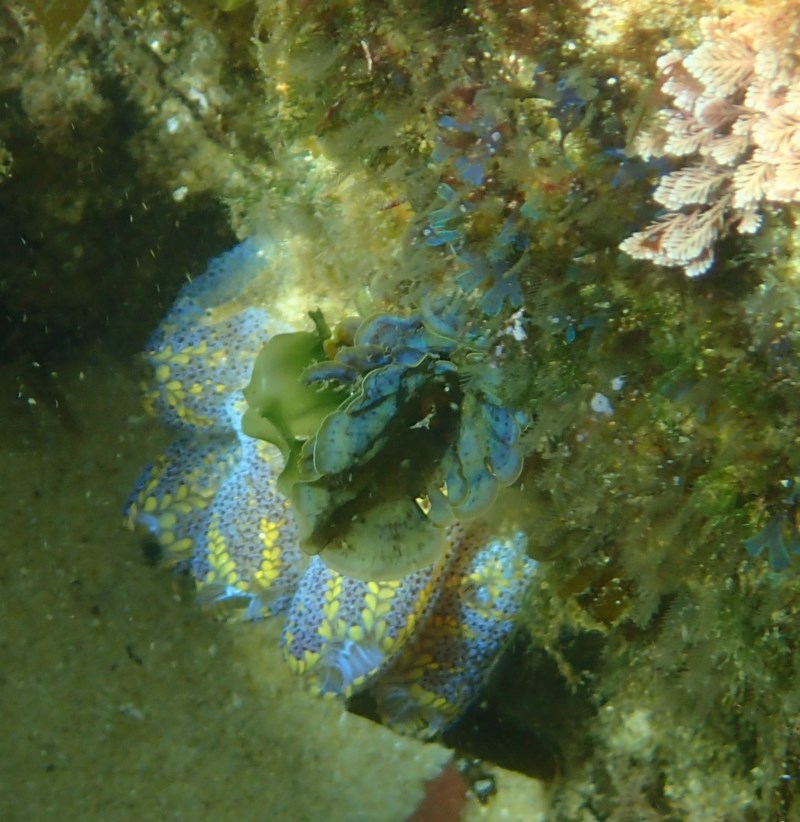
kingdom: Animalia
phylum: Chordata
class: Ascidiacea
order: Stolidobranchia
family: Styelidae
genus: Botrylloides
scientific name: Botrylloides anceps
